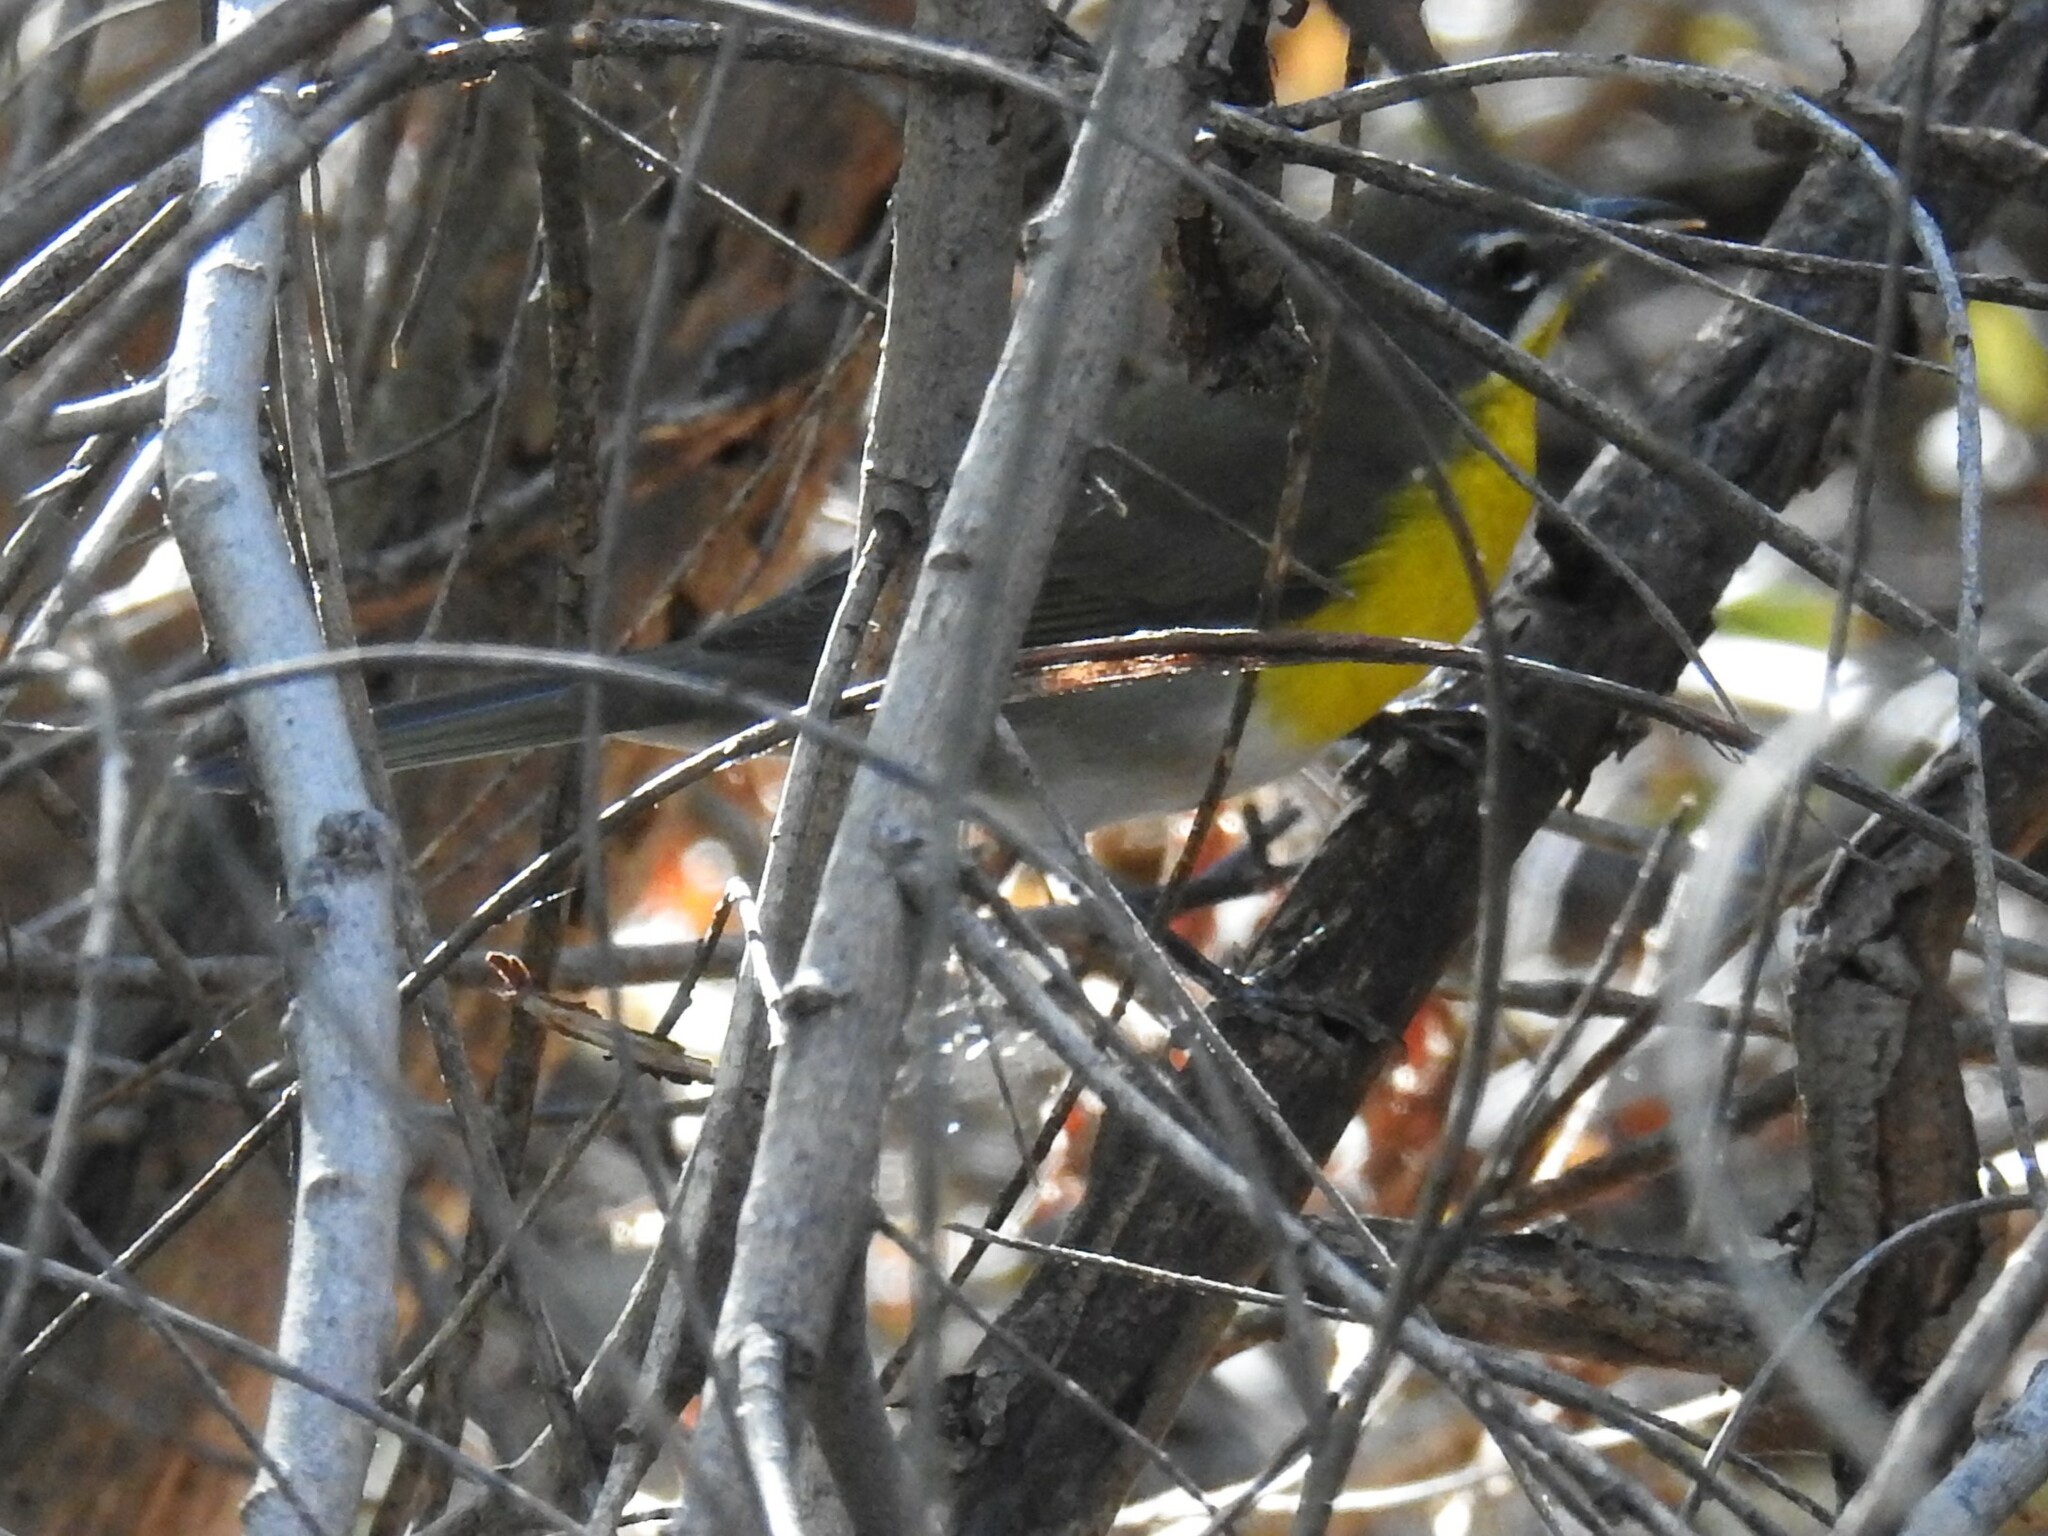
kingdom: Animalia
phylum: Chordata
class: Aves
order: Passeriformes
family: Parulidae
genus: Icteria
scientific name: Icteria virens
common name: Yellow-breasted chat
